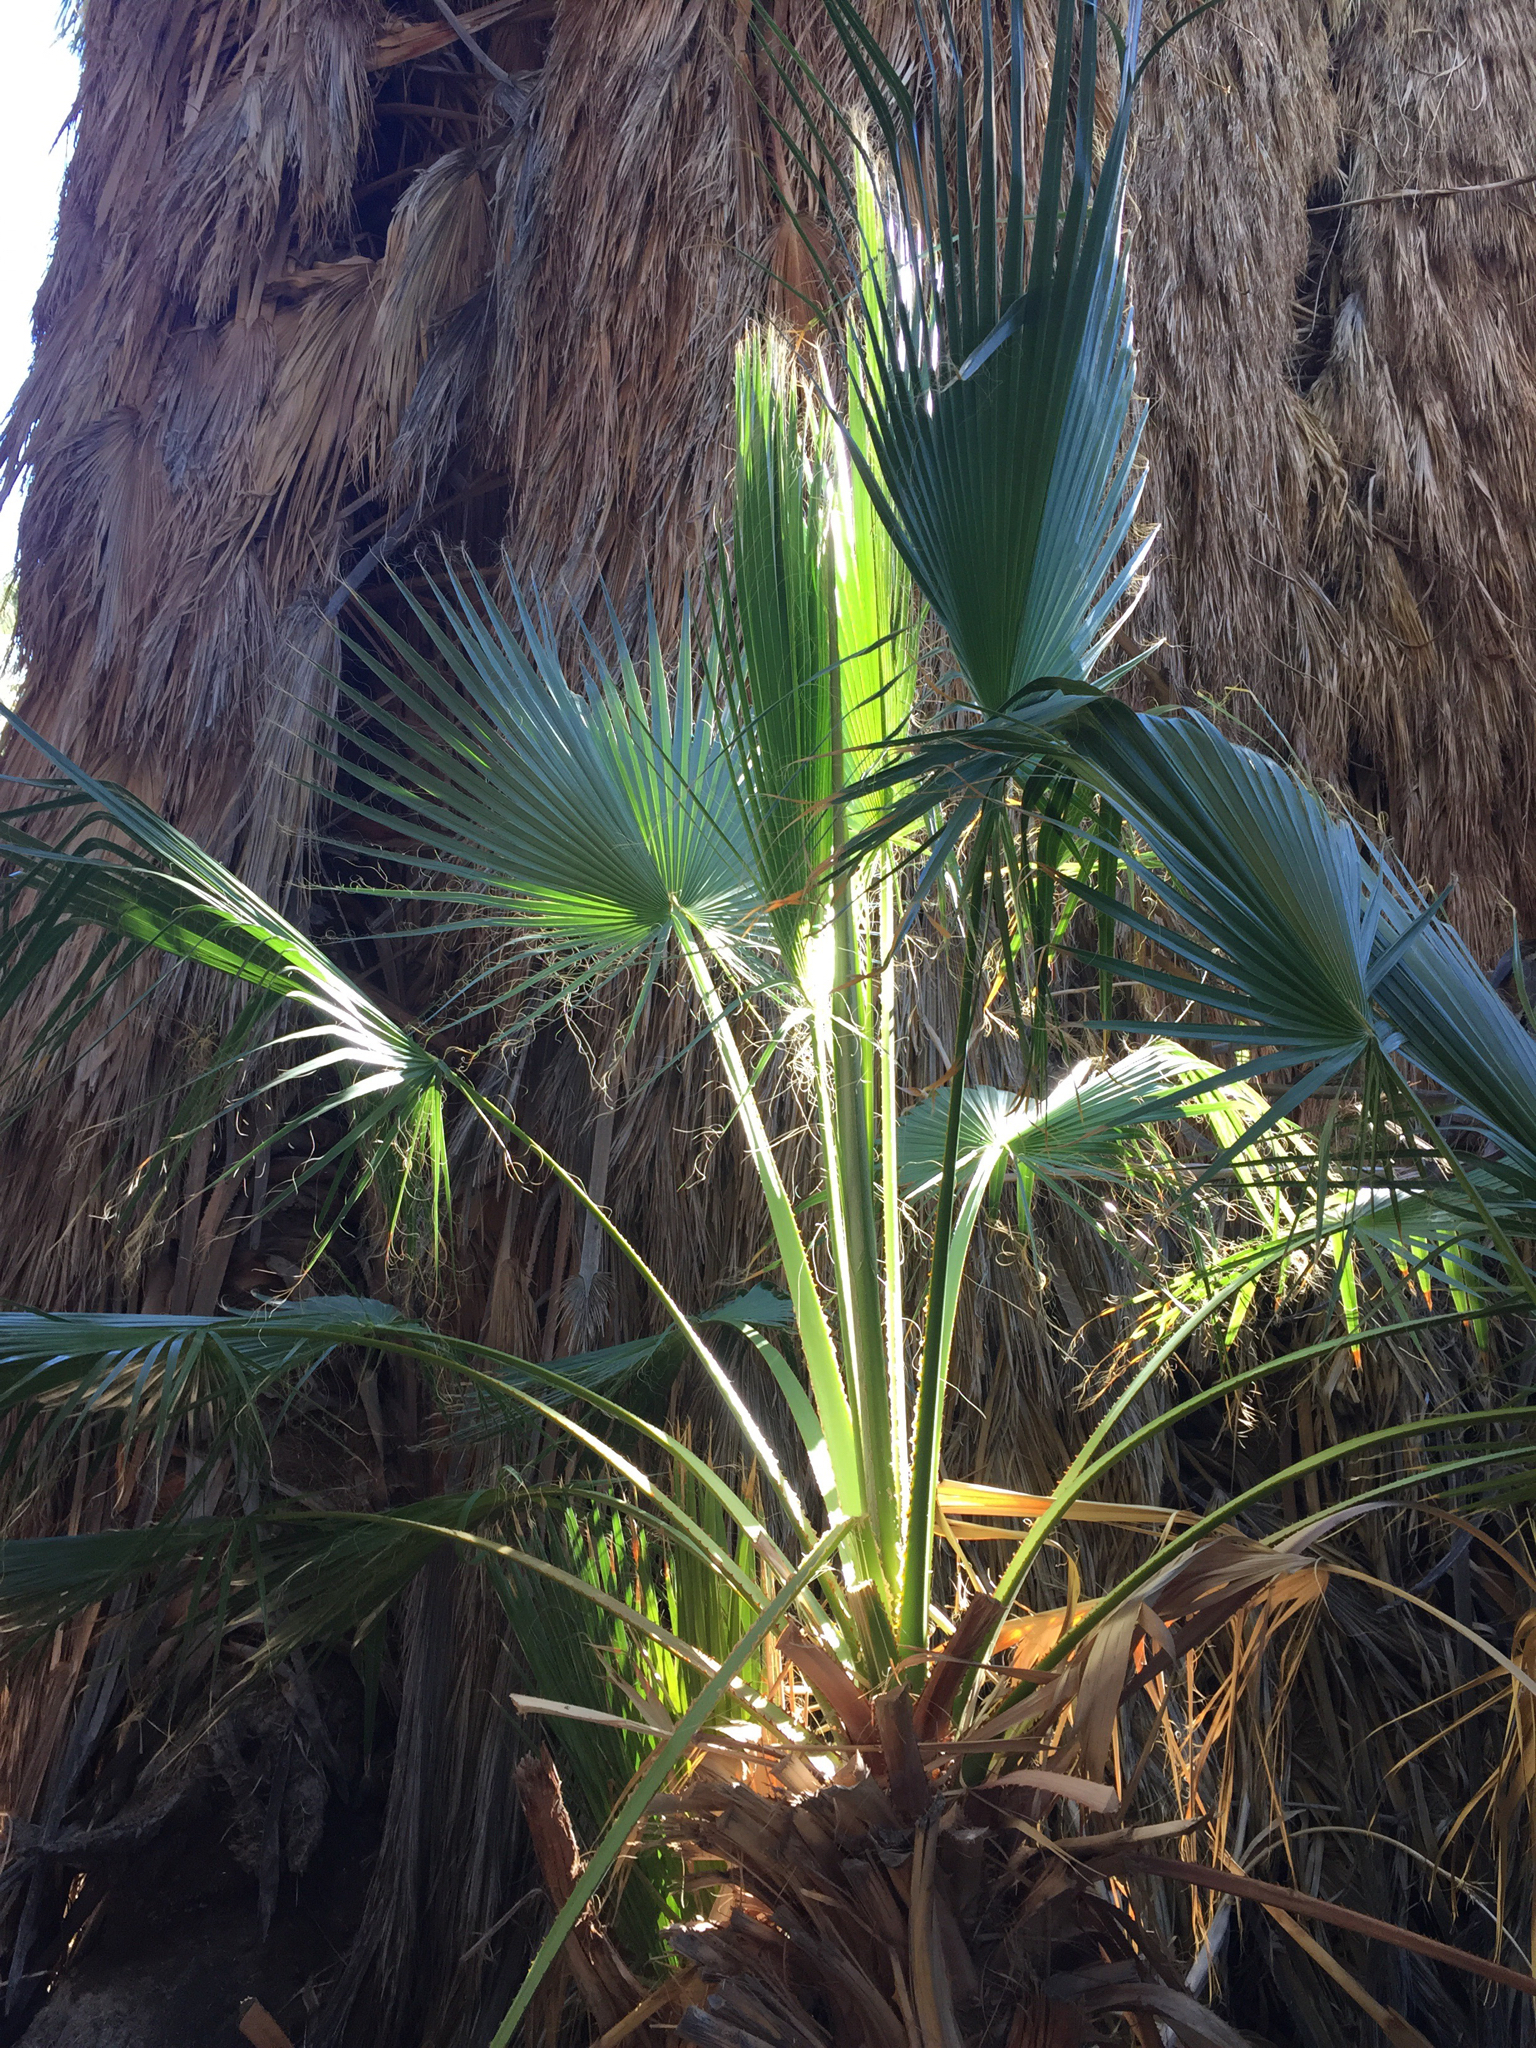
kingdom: Plantae
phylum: Tracheophyta
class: Liliopsida
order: Arecales
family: Arecaceae
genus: Washingtonia
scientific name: Washingtonia filifera
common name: California fan palm
